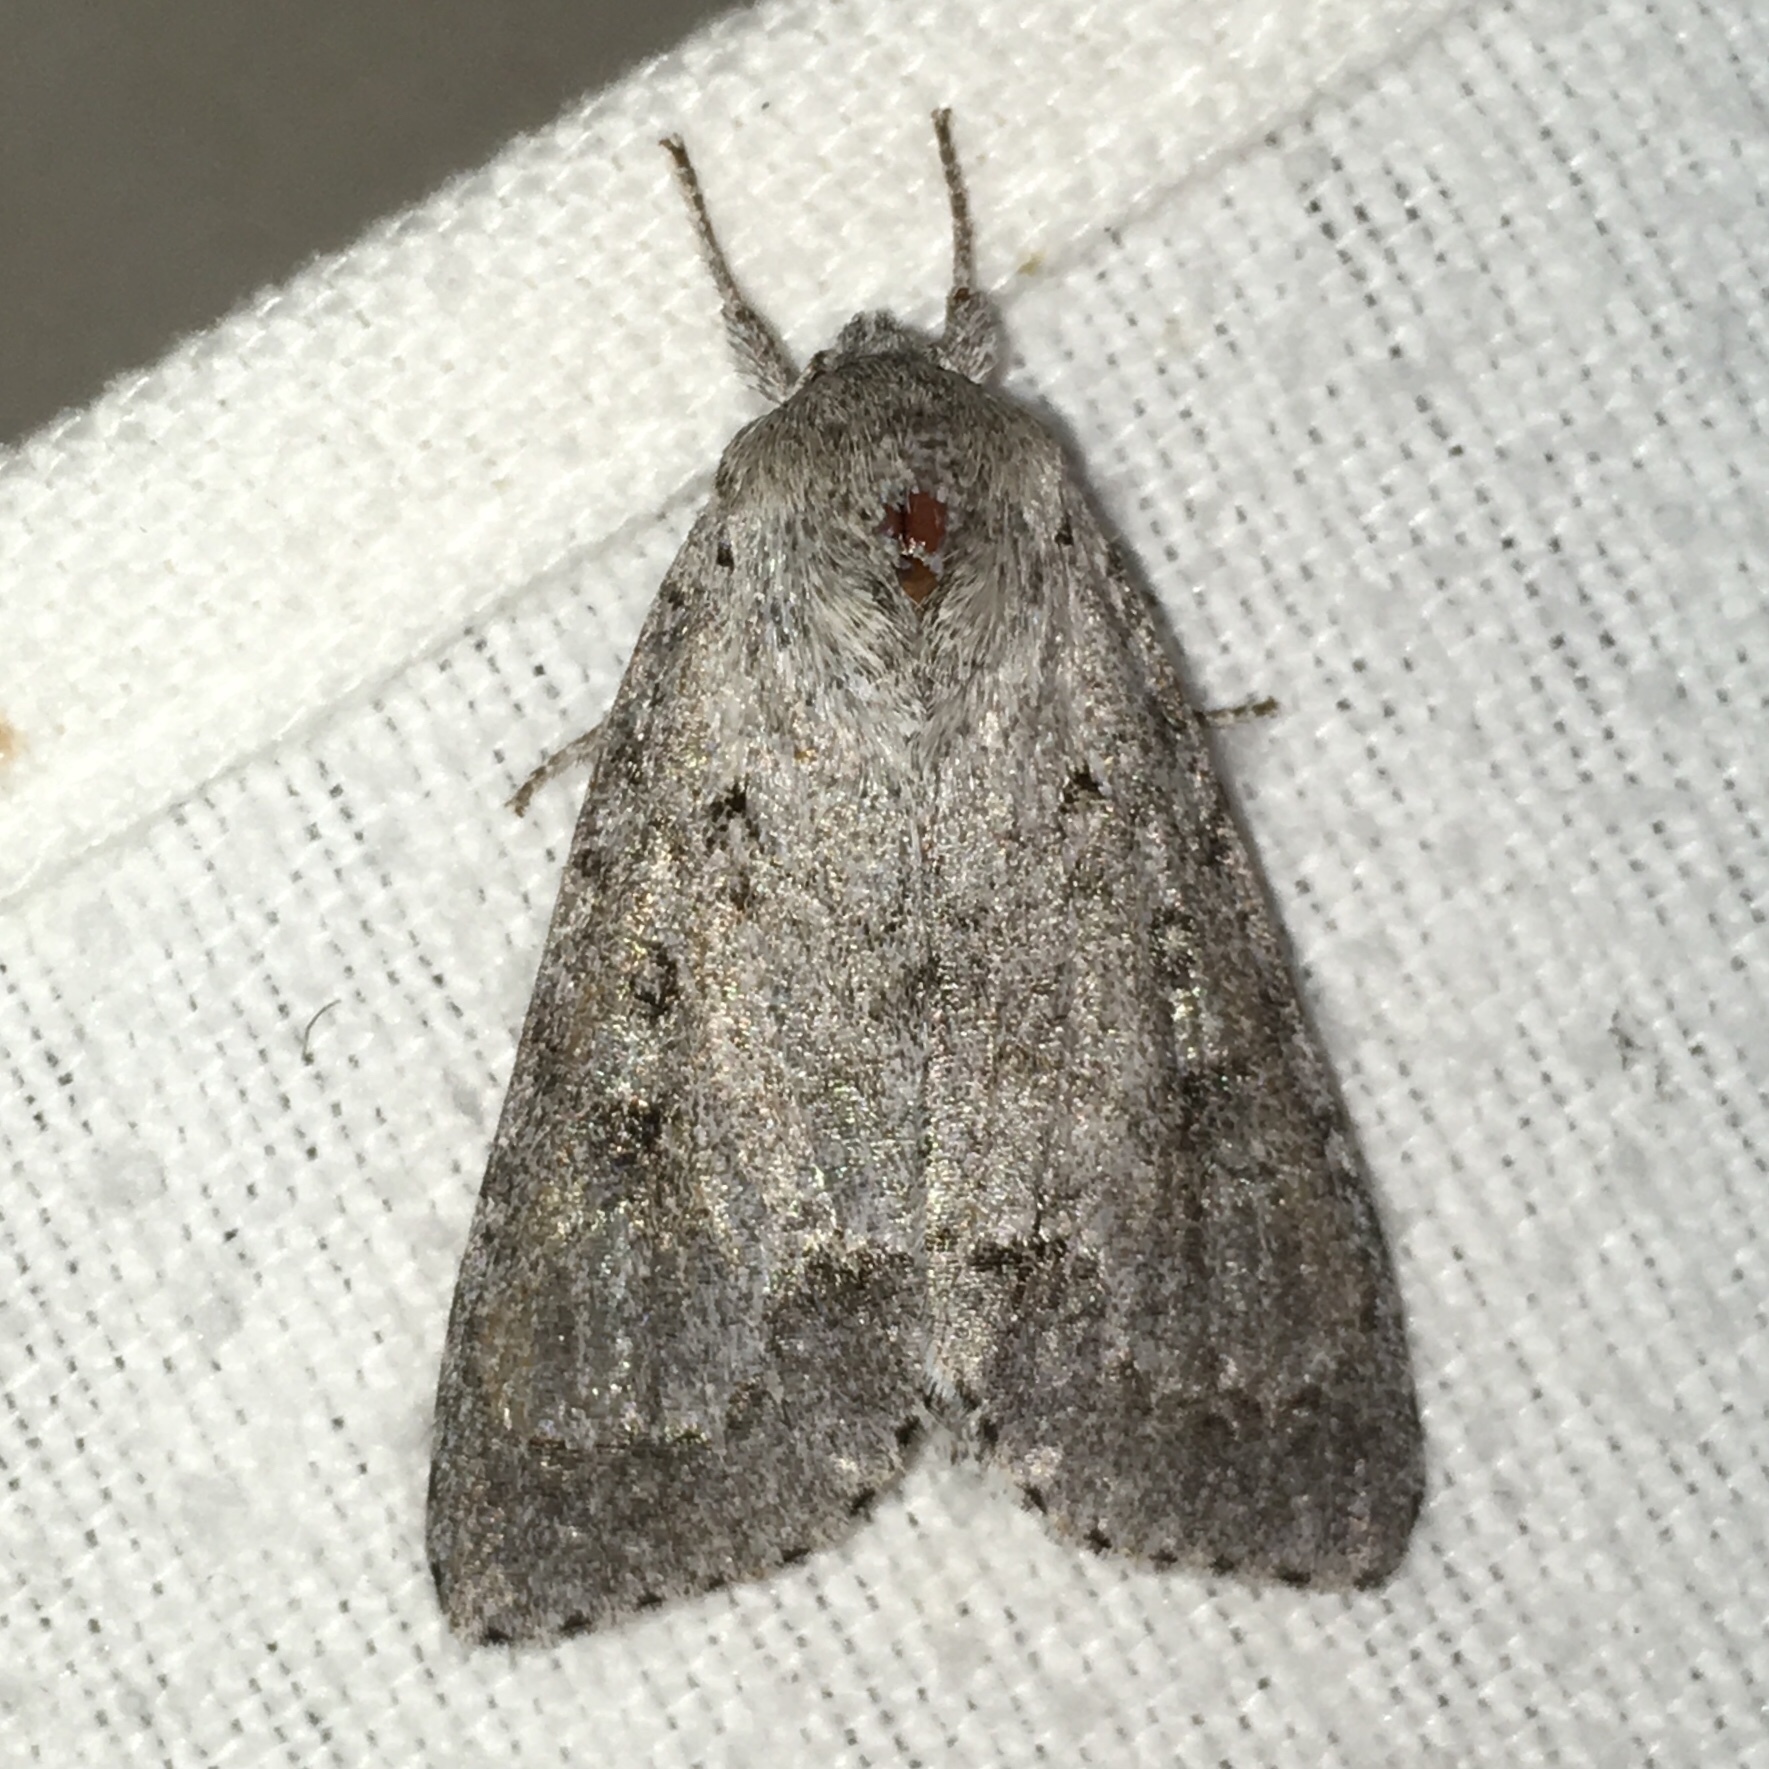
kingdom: Animalia
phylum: Arthropoda
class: Insecta
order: Lepidoptera
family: Noctuidae
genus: Acronicta
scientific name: Acronicta insita
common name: Large gray dagger
